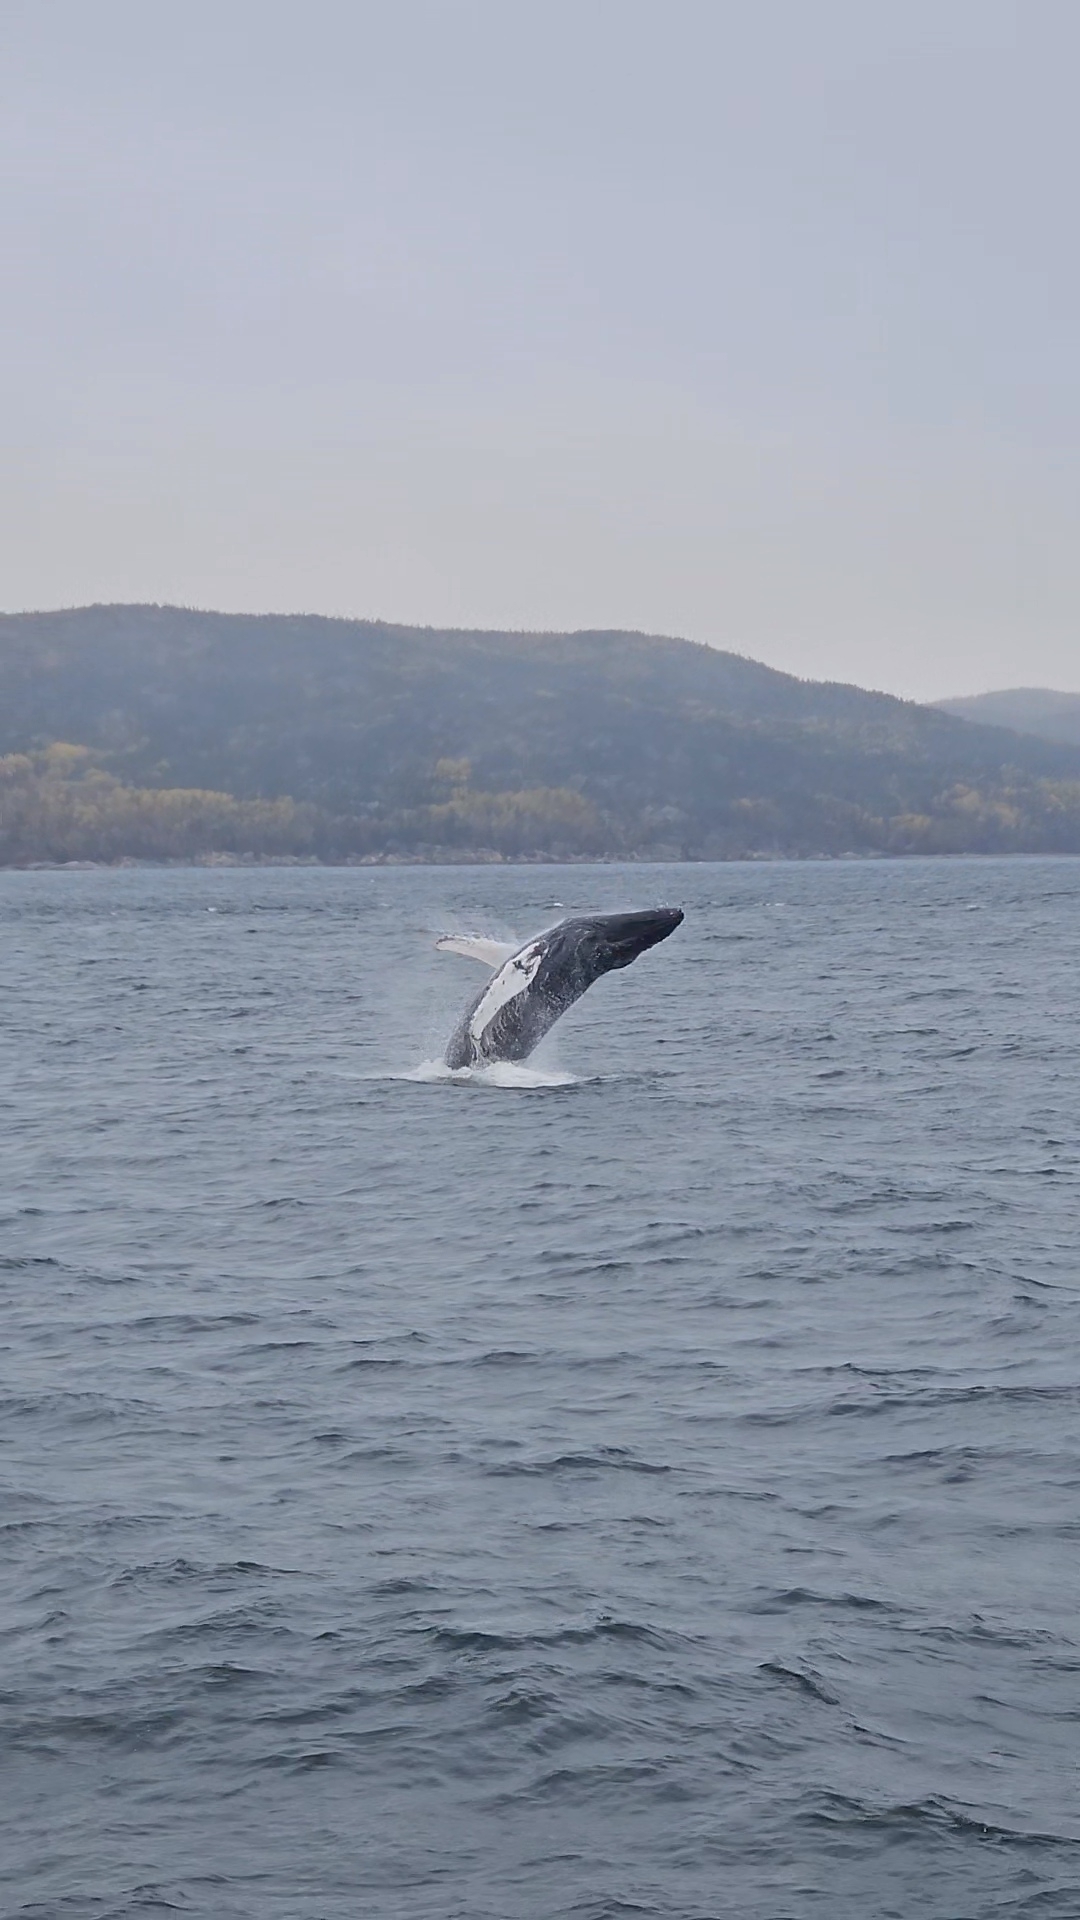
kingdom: Animalia
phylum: Chordata
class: Mammalia
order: Cetacea
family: Balaenopteridae
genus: Megaptera
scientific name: Megaptera novaeangliae
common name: Humpback whale
